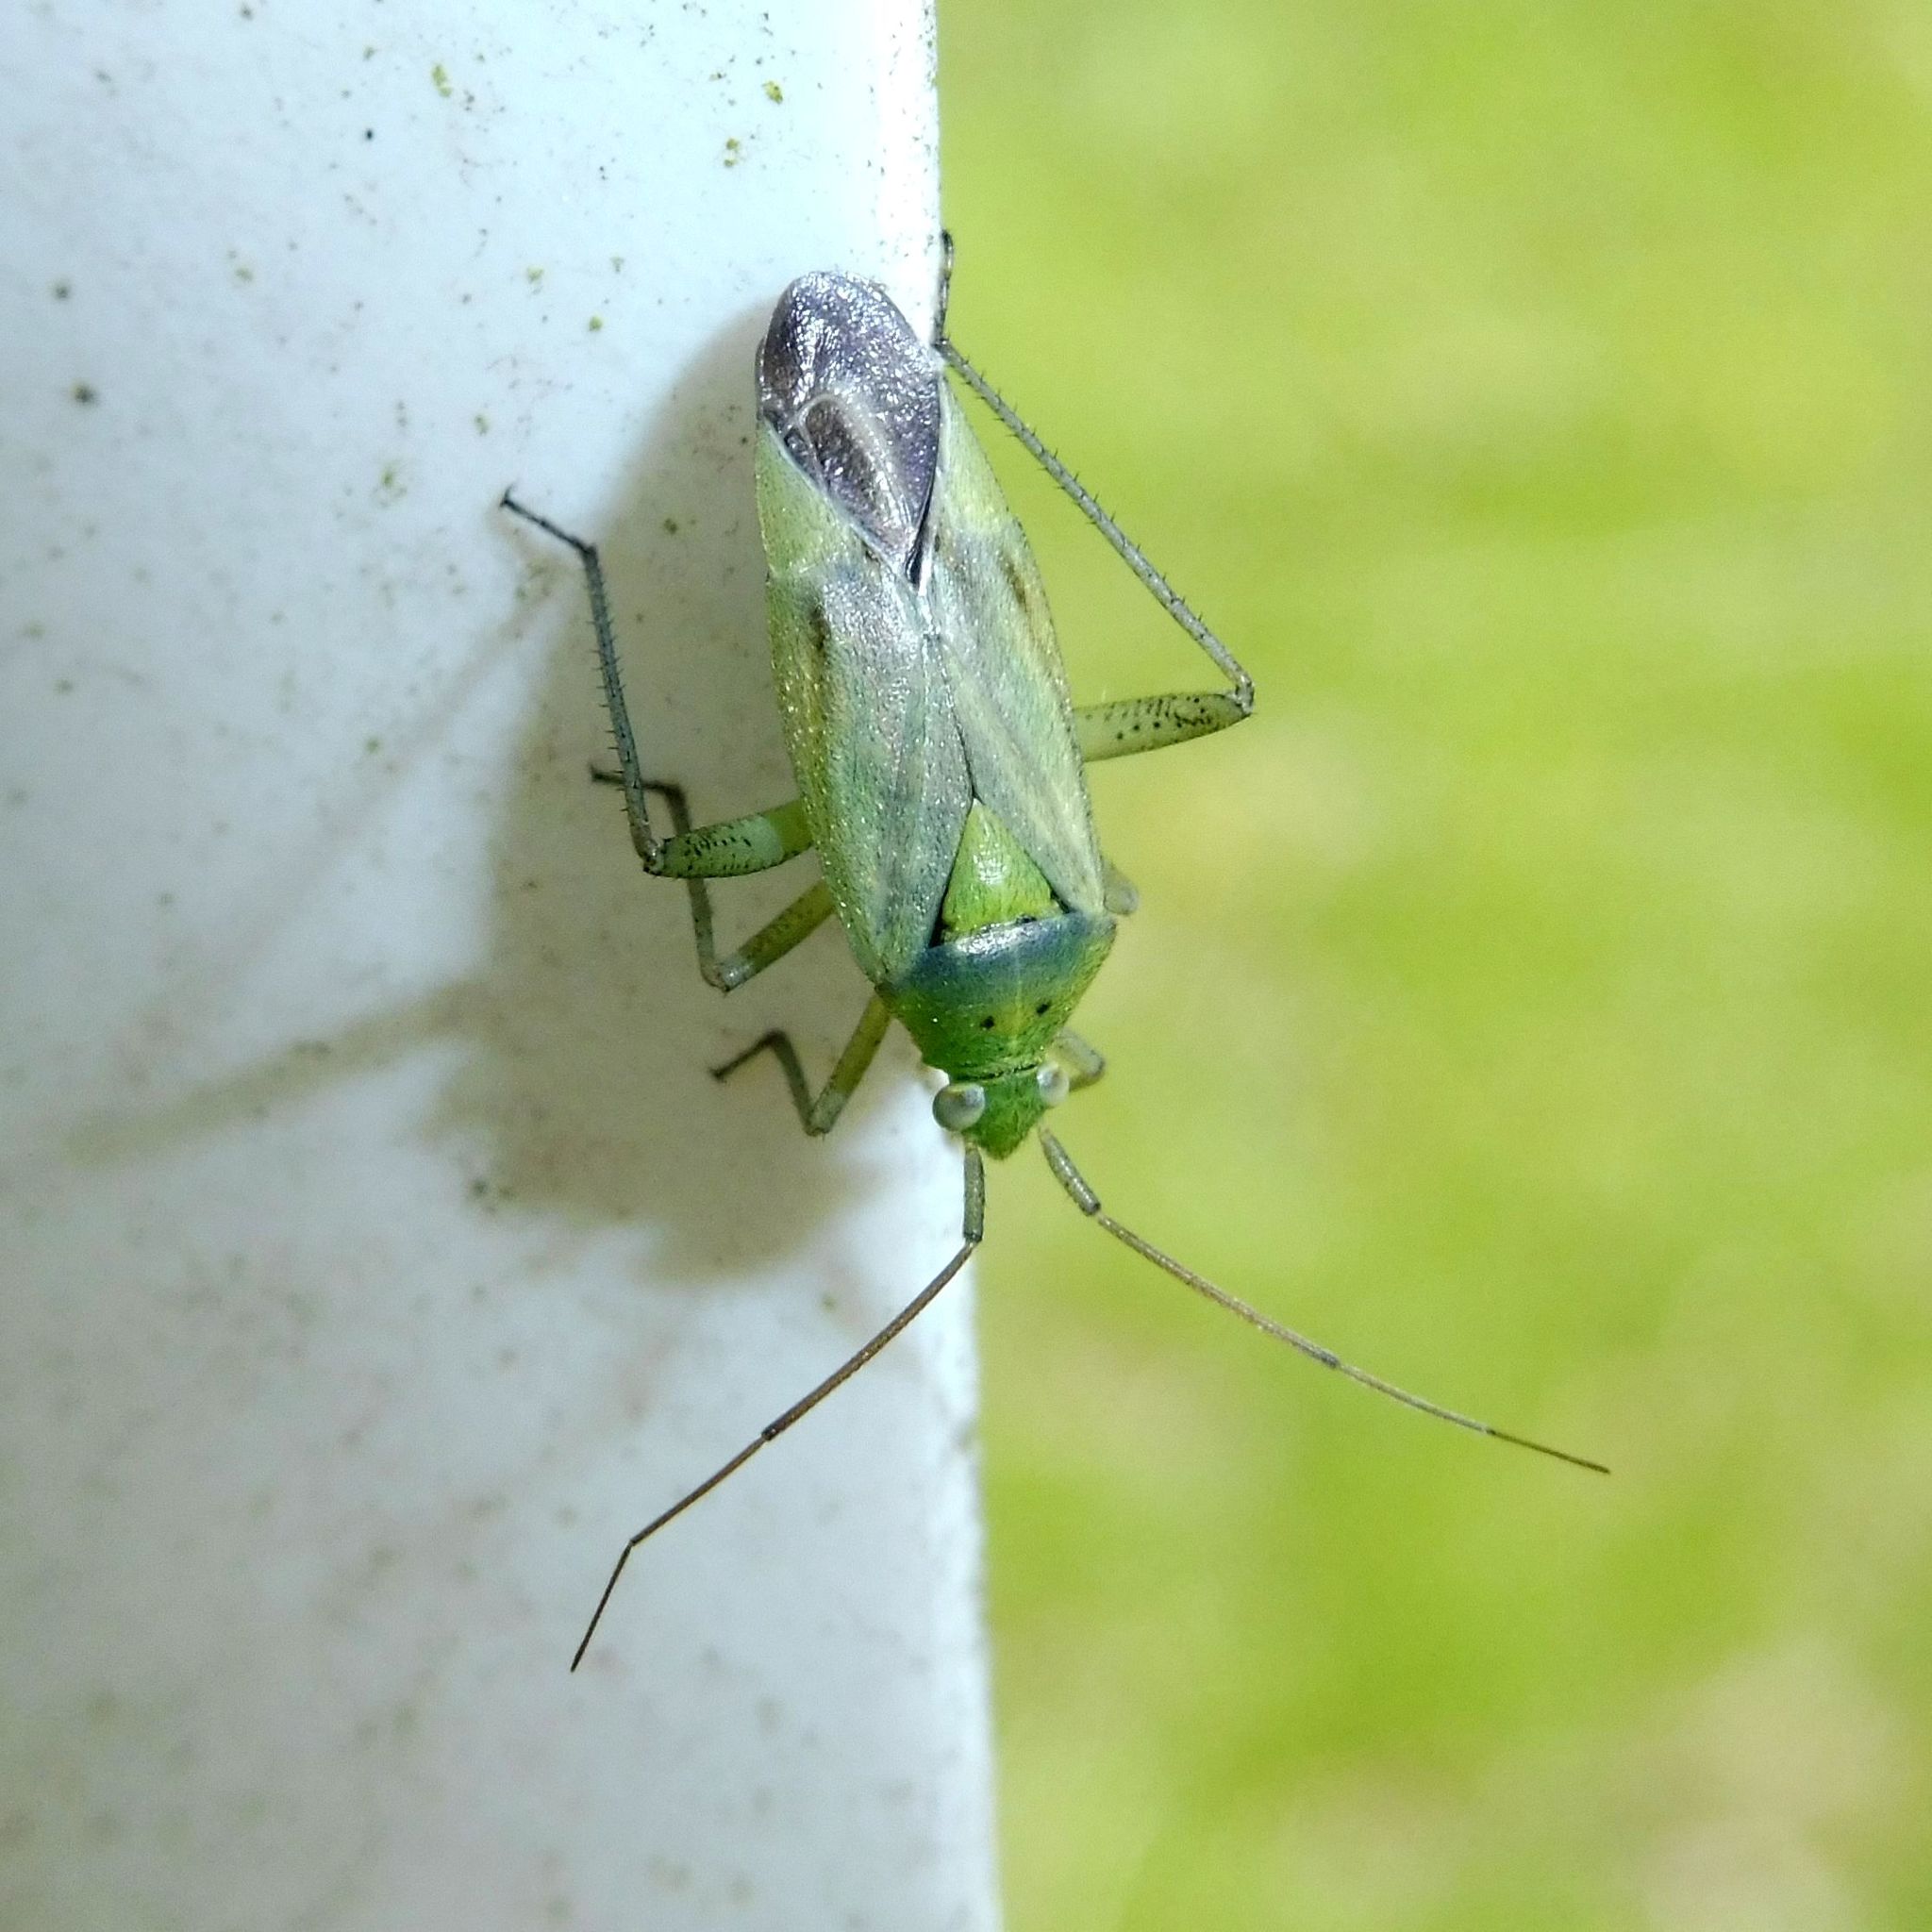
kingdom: Animalia
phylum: Arthropoda
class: Insecta
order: Hemiptera
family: Miridae
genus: Closterotomus
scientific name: Closterotomus norvegicus
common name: Plant bug
